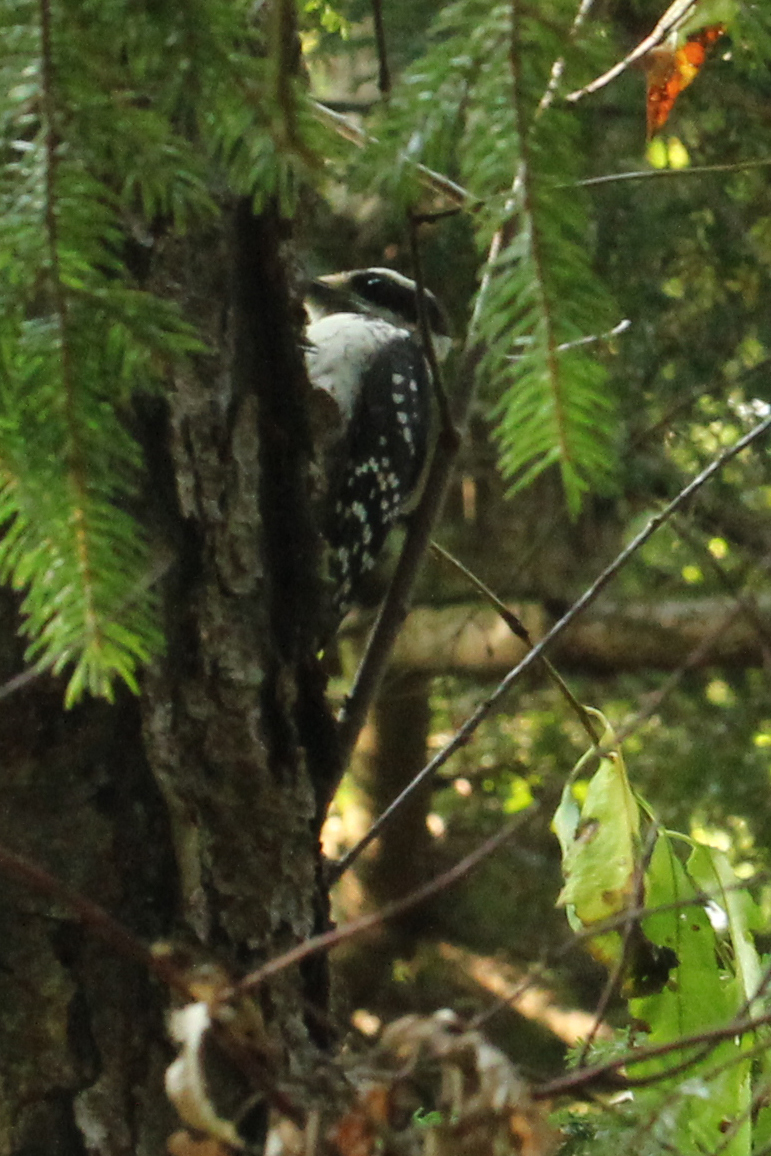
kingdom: Animalia
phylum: Chordata
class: Aves
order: Piciformes
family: Picidae
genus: Leuconotopicus
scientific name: Leuconotopicus villosus
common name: Hairy woodpecker
